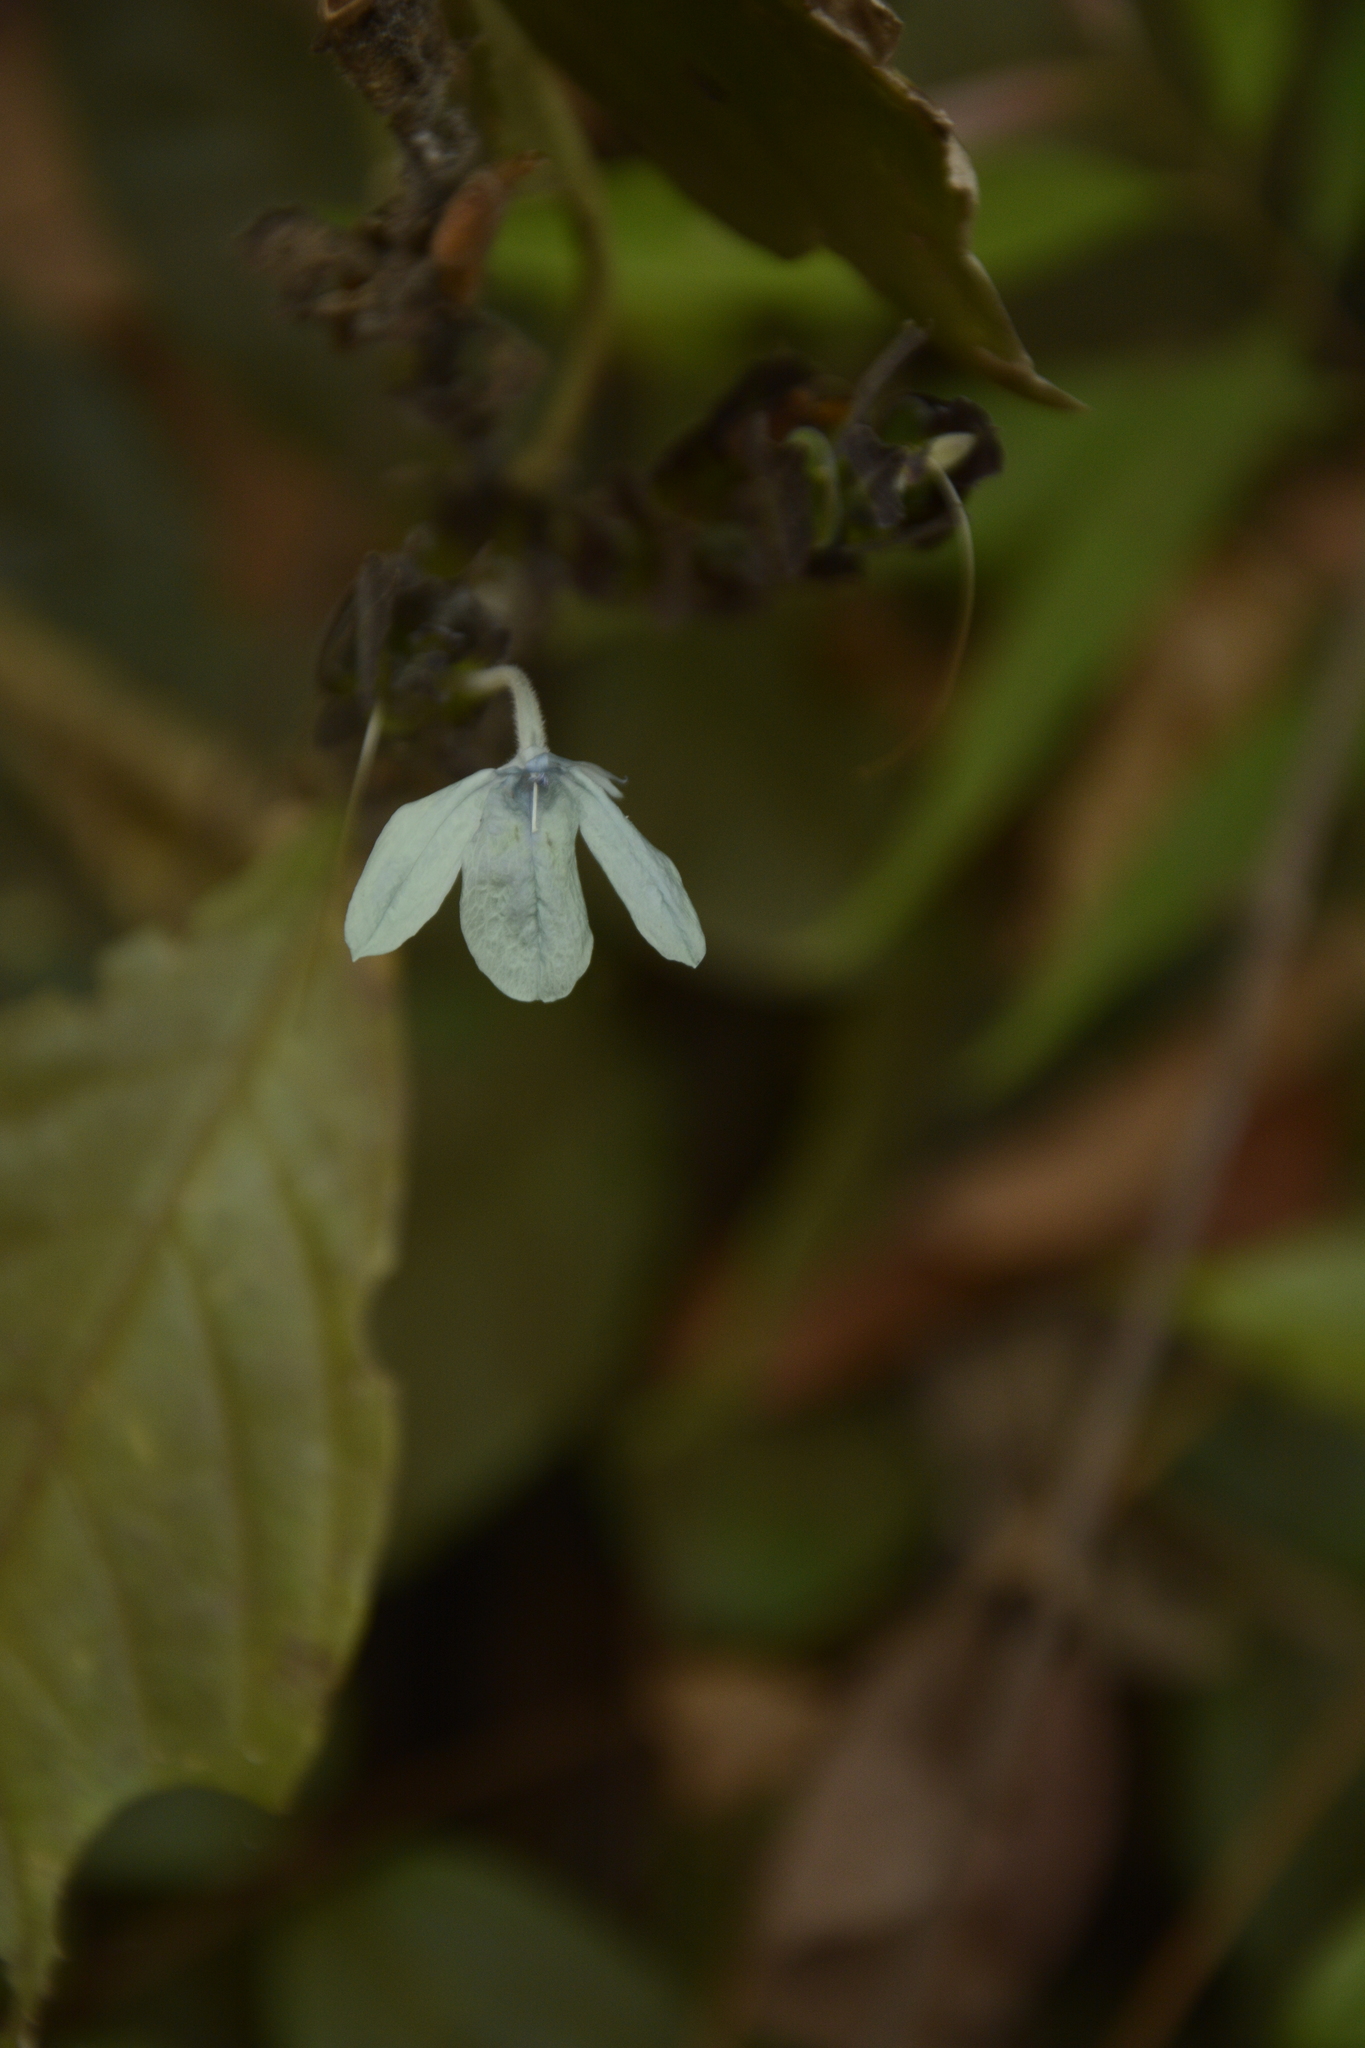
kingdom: Plantae
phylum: Tracheophyta
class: Magnoliopsida
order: Lamiales
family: Acanthaceae
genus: Ecbolium
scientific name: Ecbolium ligustrinum
